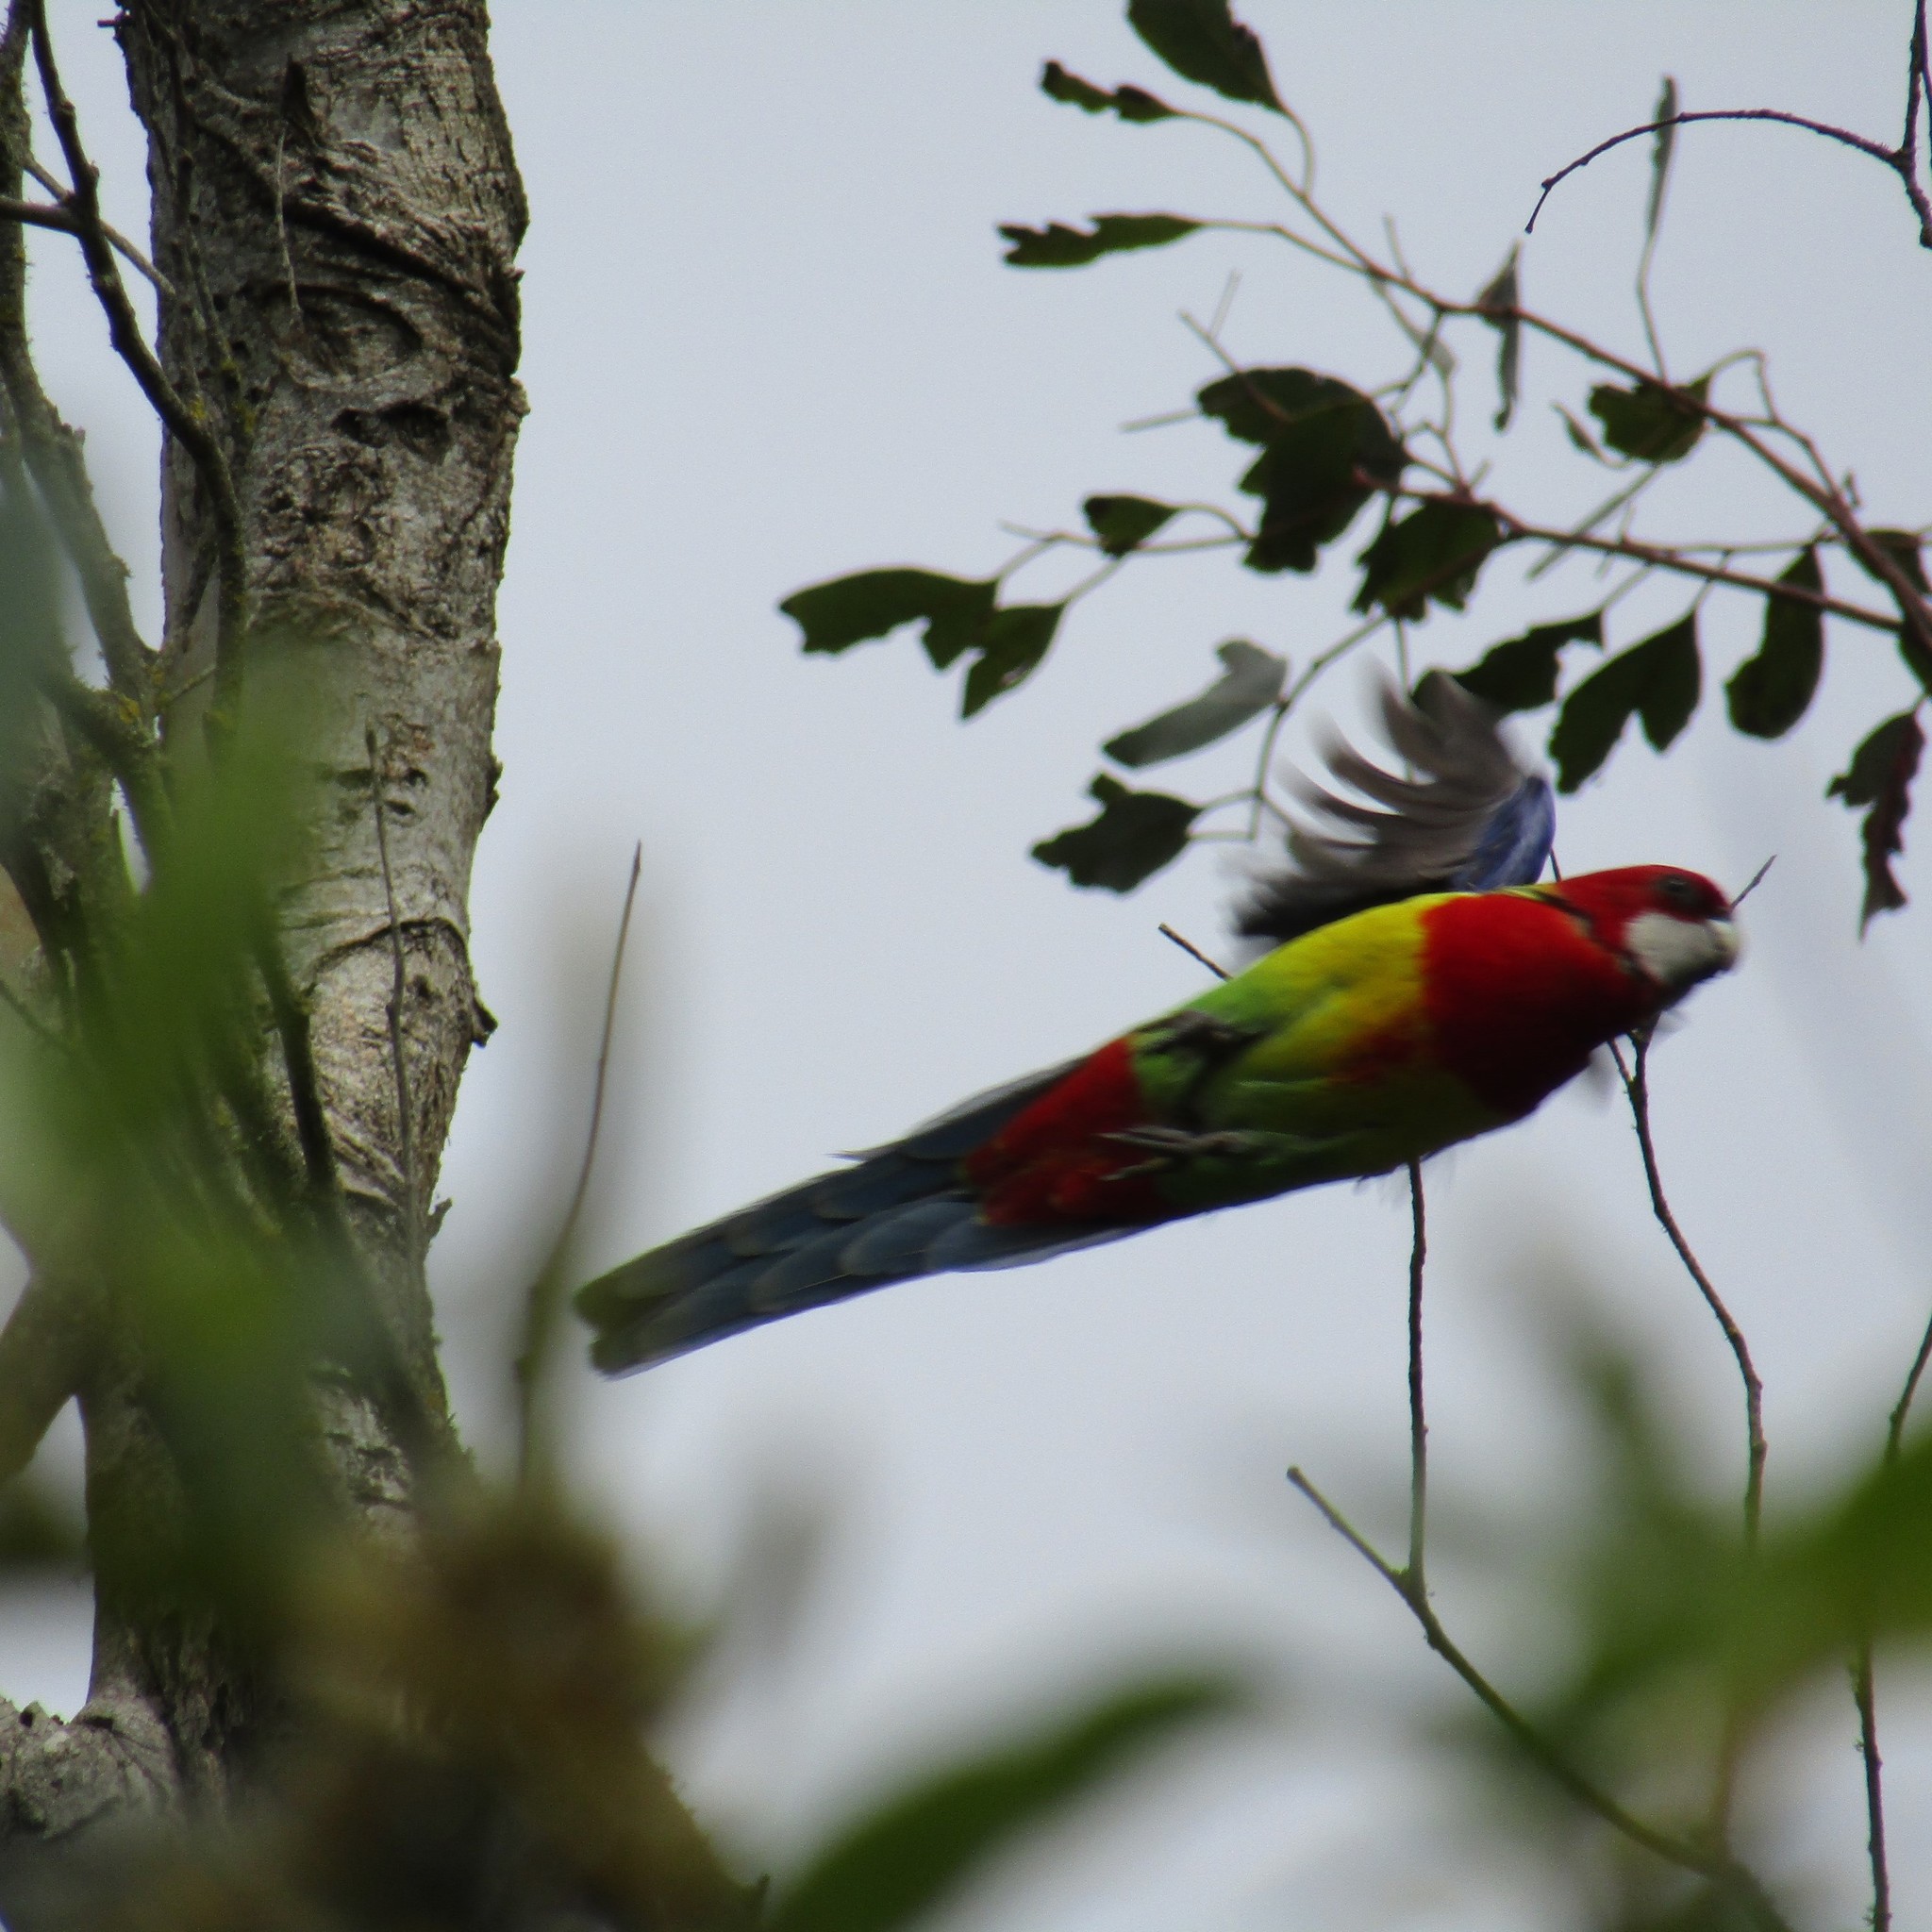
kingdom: Animalia
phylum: Chordata
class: Aves
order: Psittaciformes
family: Psittacidae
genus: Platycercus
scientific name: Platycercus eximius
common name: Eastern rosella
